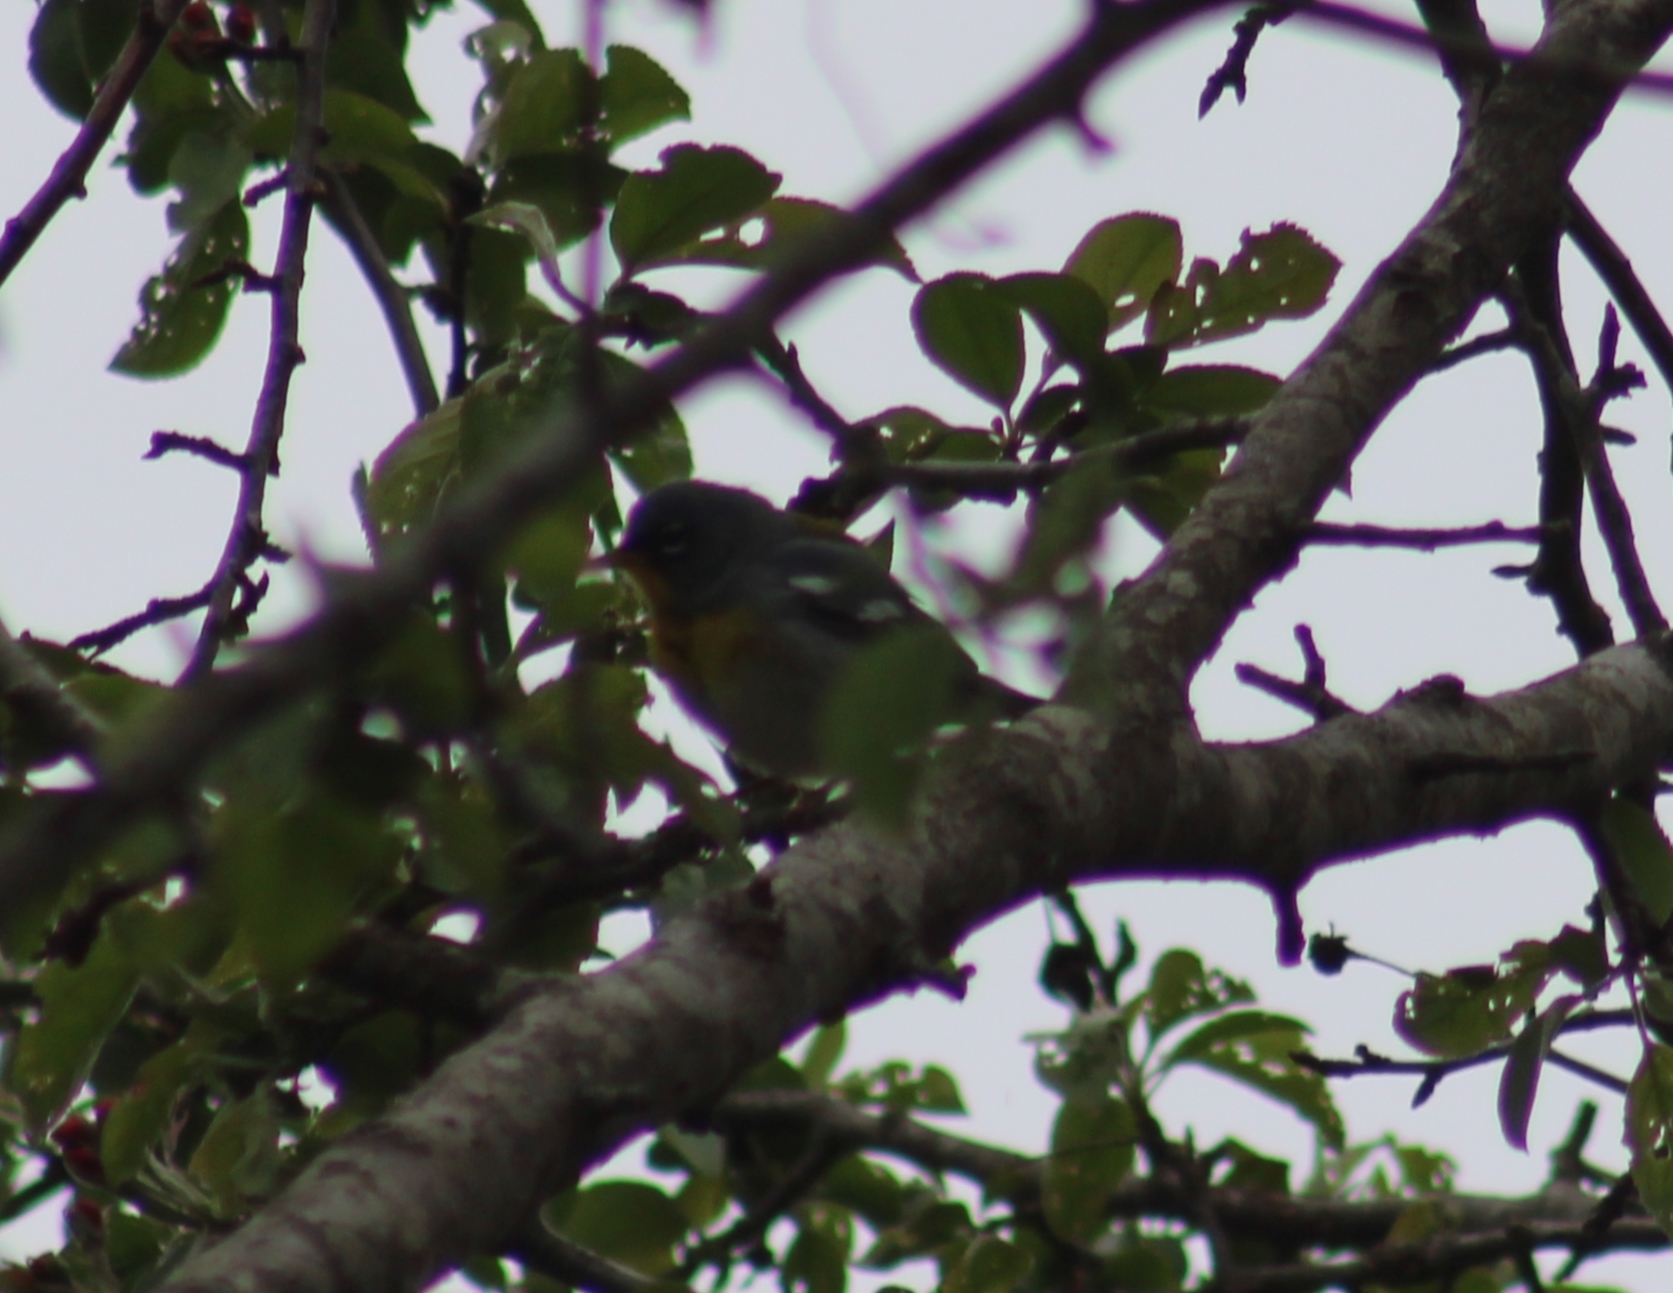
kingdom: Animalia
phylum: Chordata
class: Aves
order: Passeriformes
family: Parulidae
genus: Setophaga
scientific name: Setophaga americana
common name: Northern parula
